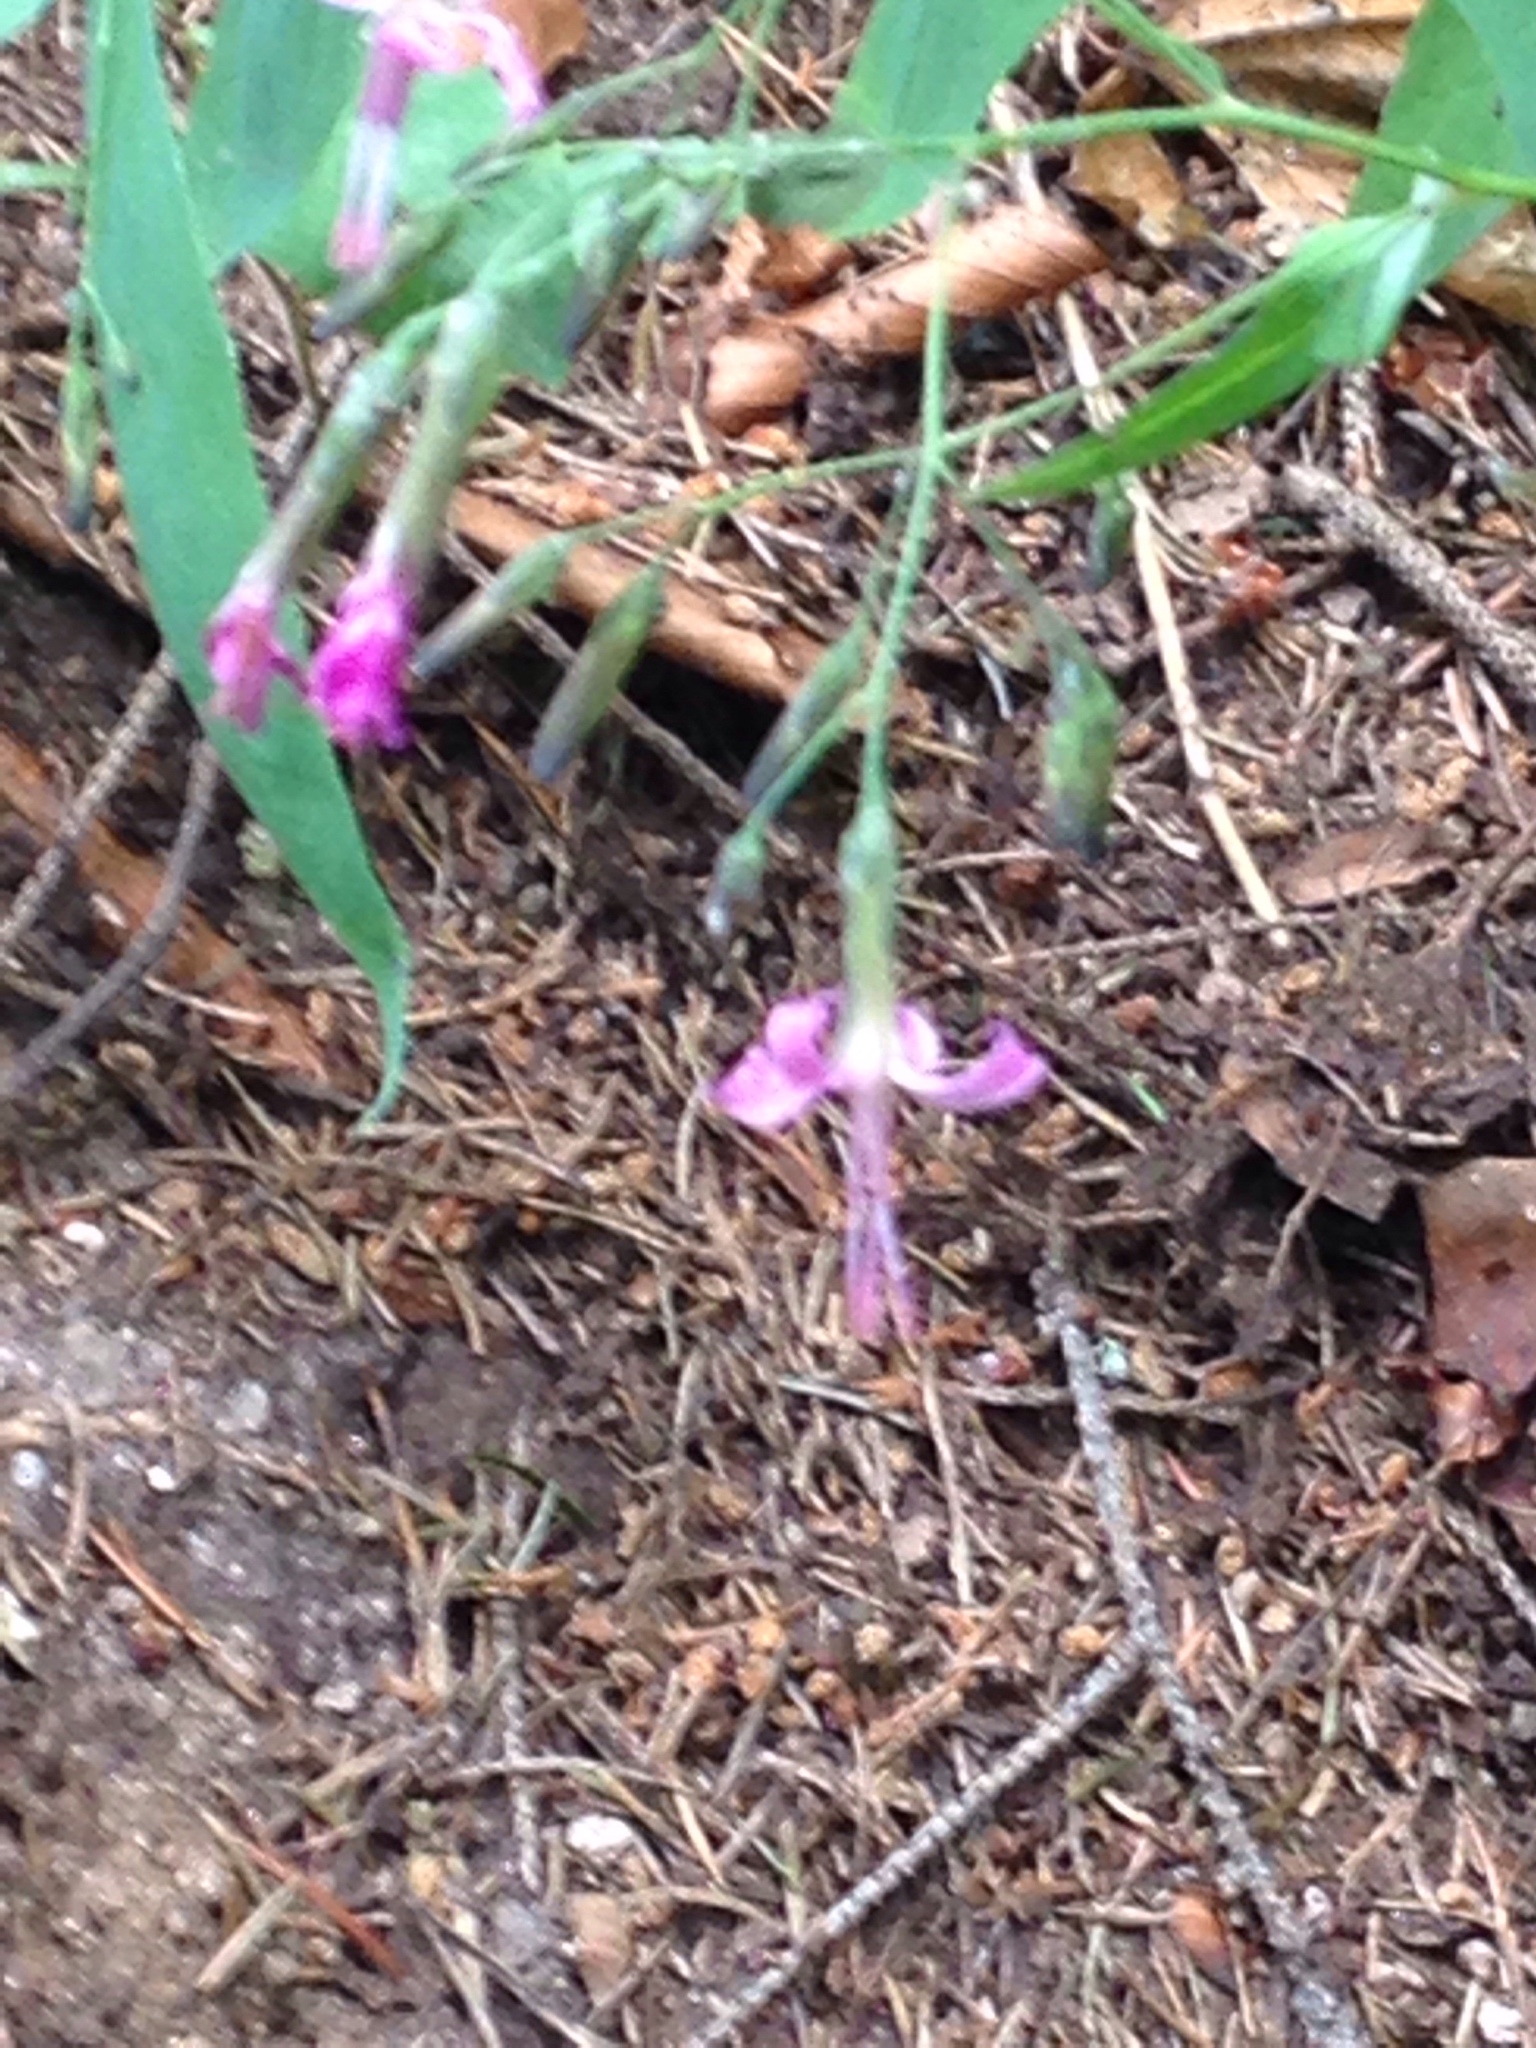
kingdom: Plantae
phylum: Tracheophyta
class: Magnoliopsida
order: Asterales
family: Asteraceae
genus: Prenanthes
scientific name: Prenanthes purpurea
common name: Purple lettuce
